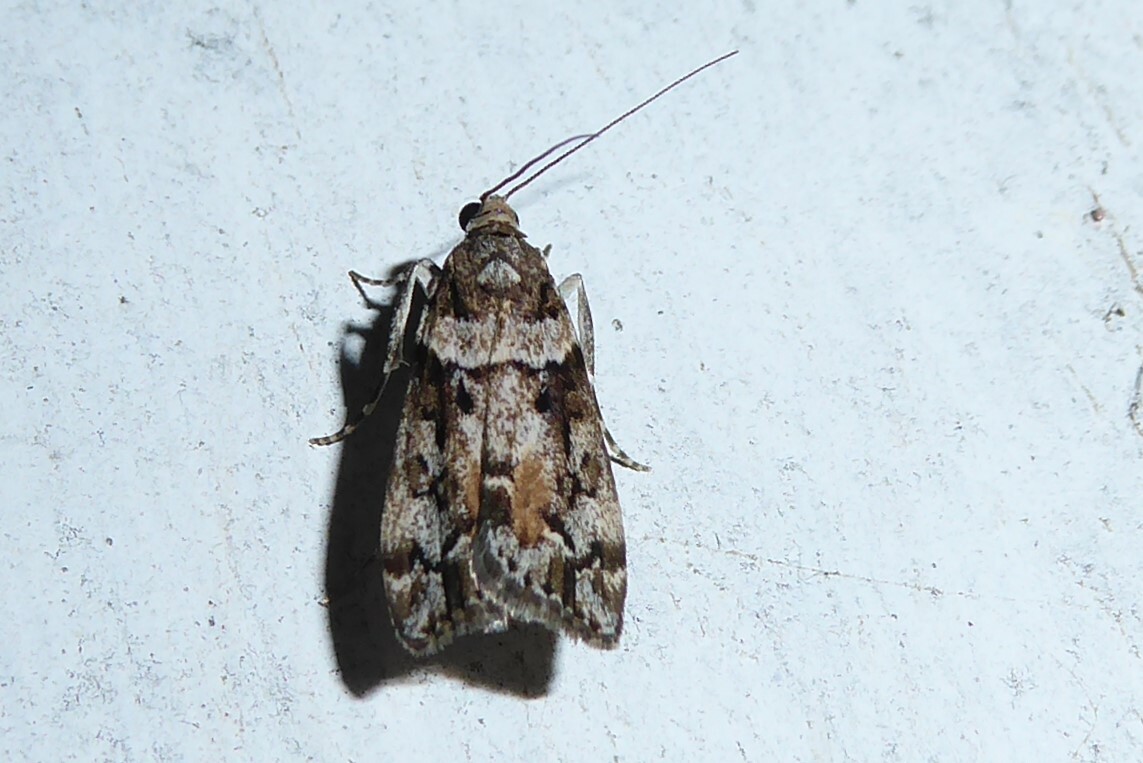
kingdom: Animalia
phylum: Arthropoda
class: Insecta
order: Lepidoptera
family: Crambidae
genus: Eudonia
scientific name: Eudonia submarginalis
